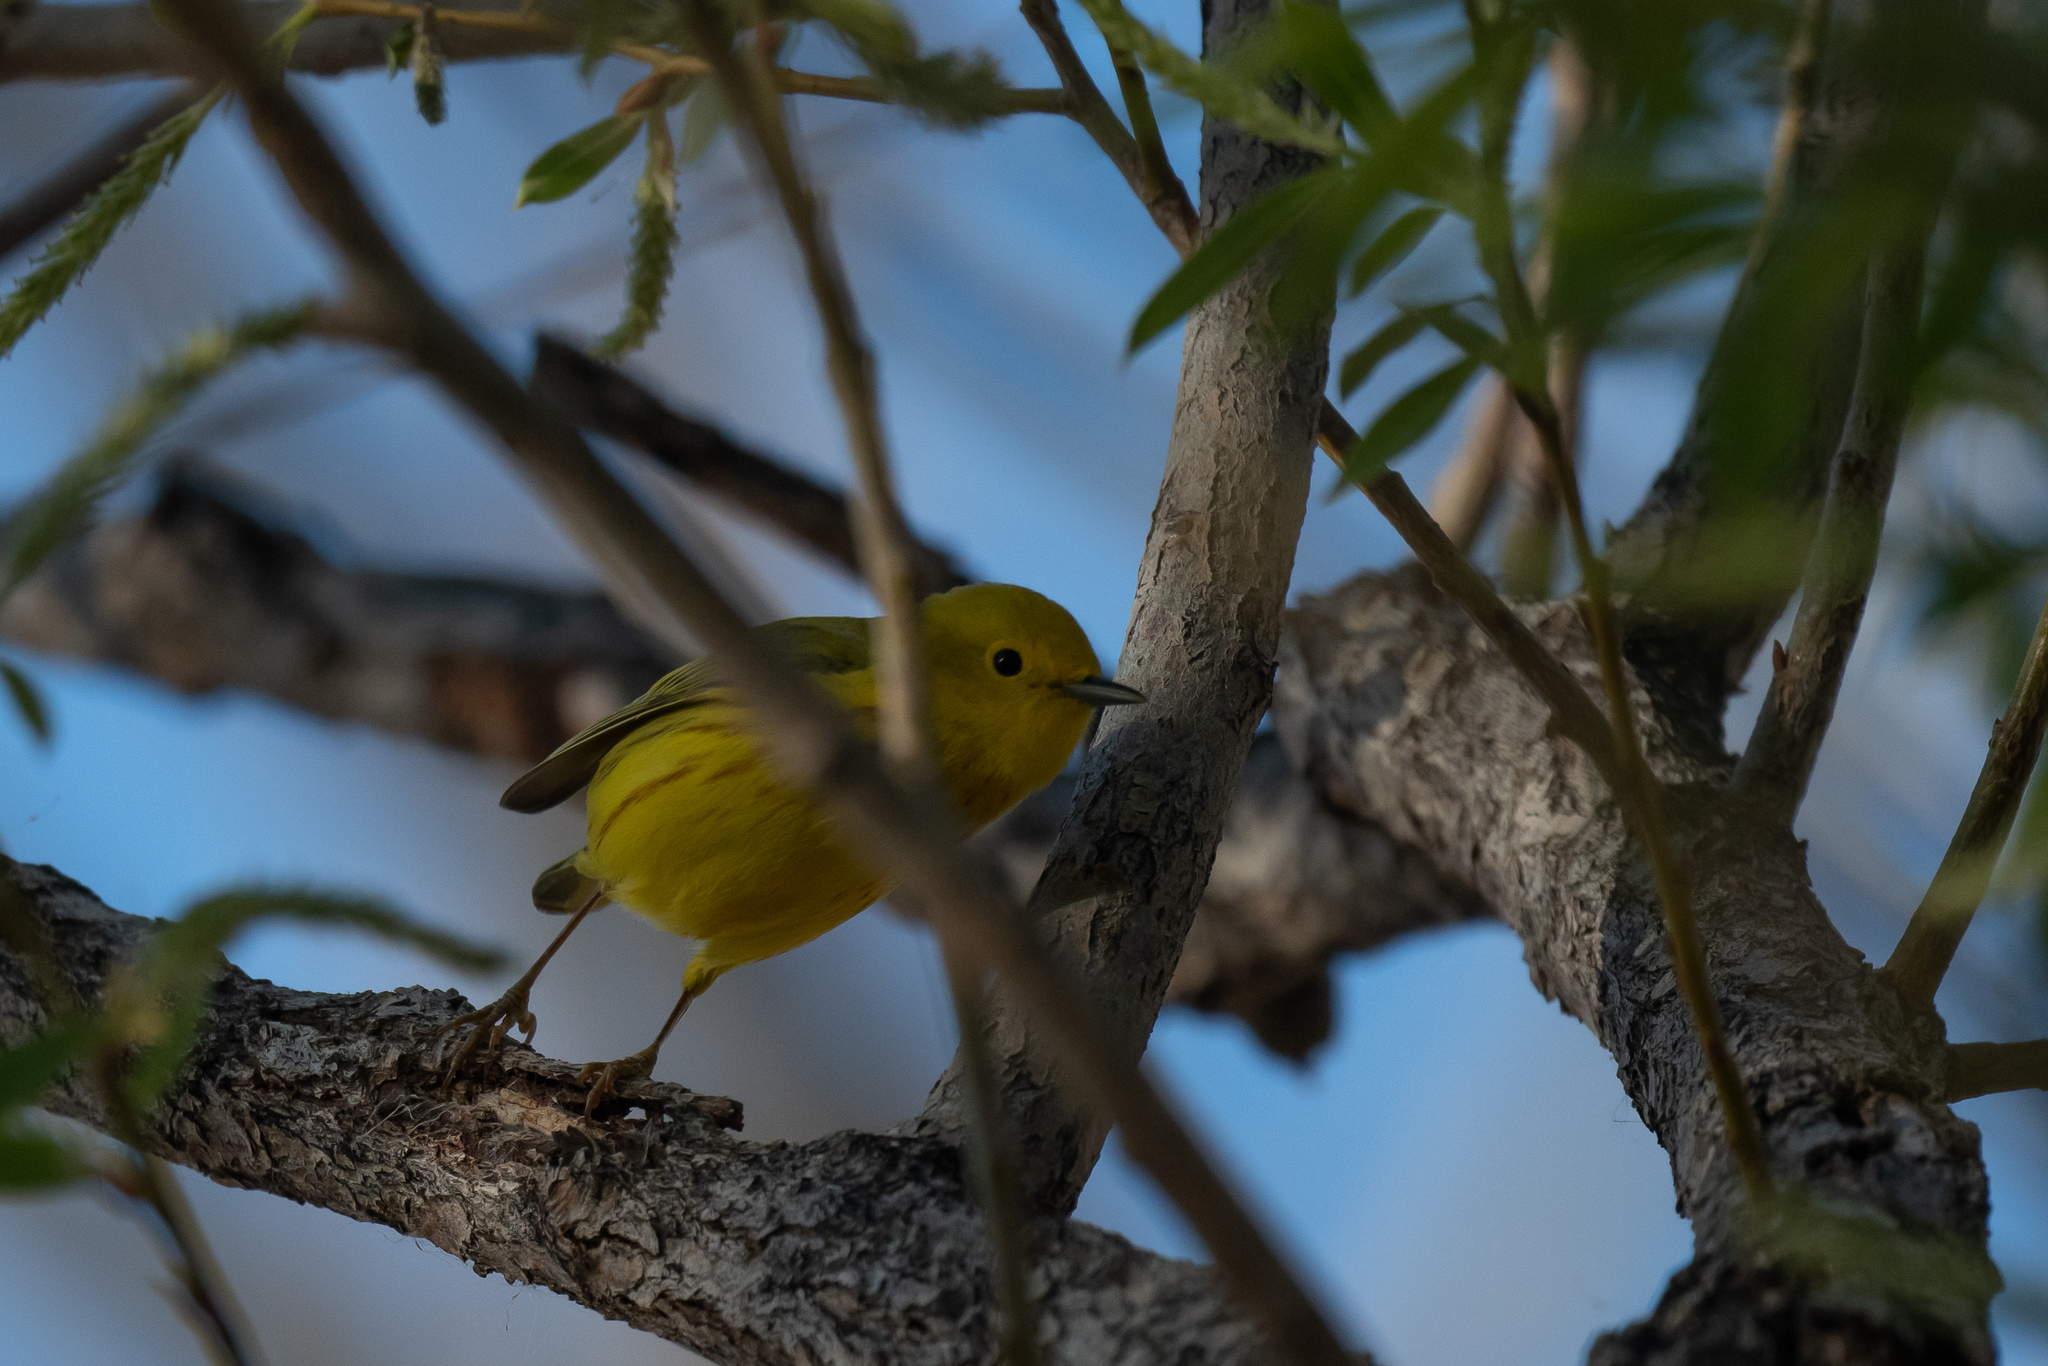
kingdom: Animalia
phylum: Chordata
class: Aves
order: Passeriformes
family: Parulidae
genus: Setophaga
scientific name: Setophaga petechia
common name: Yellow warbler
